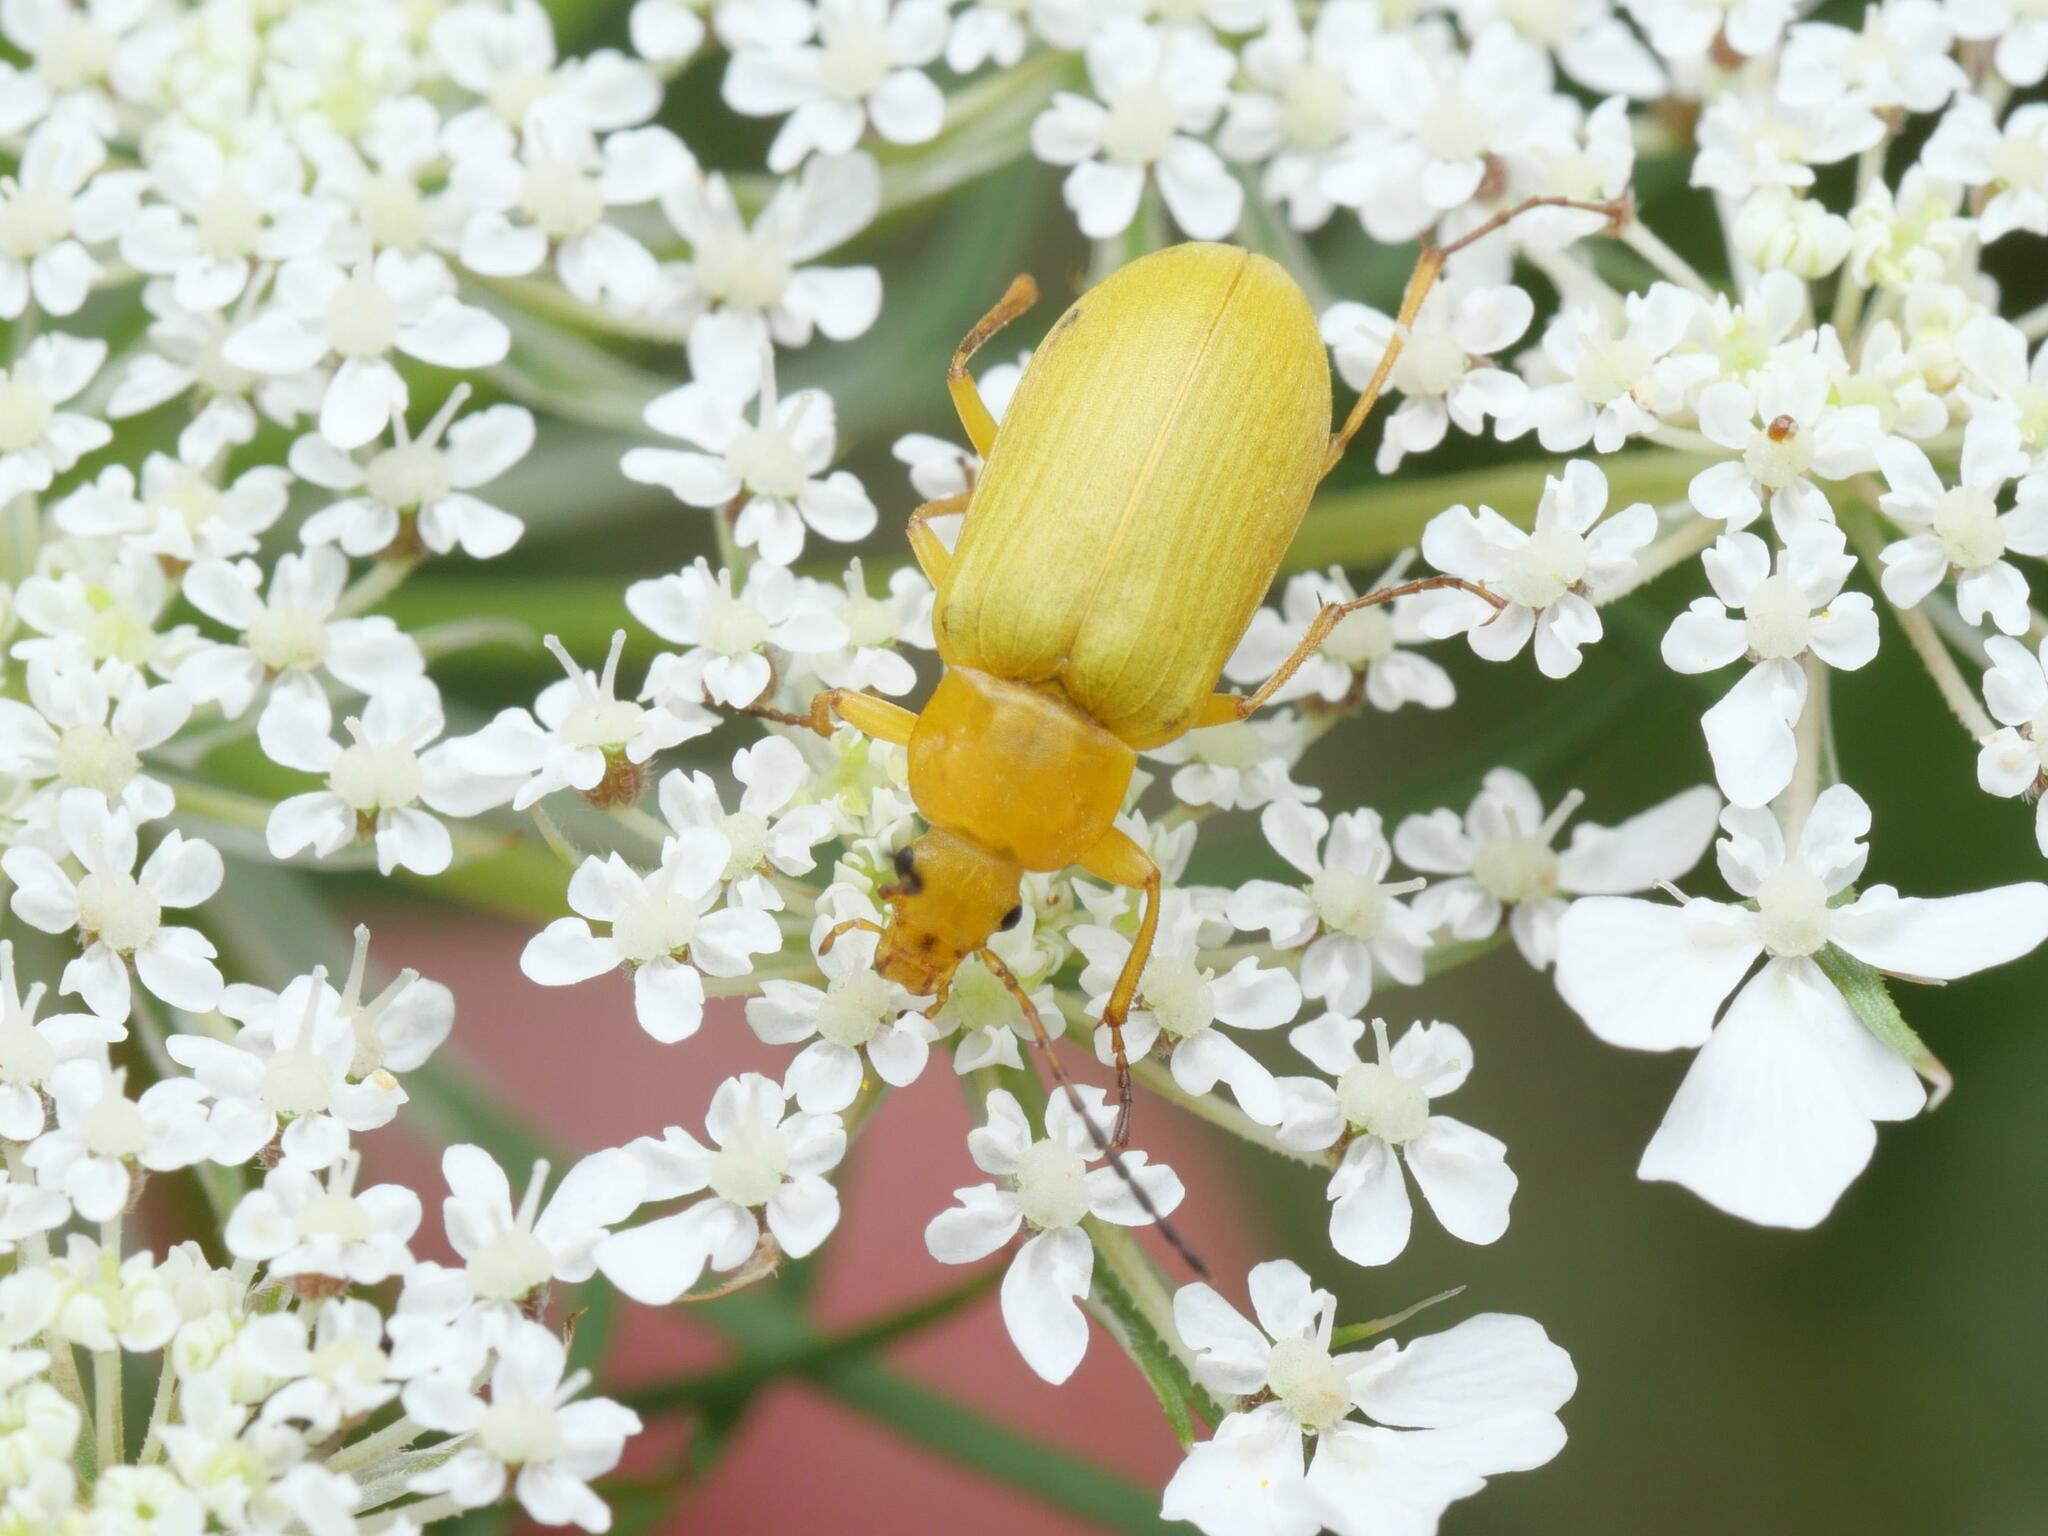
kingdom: Animalia
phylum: Arthropoda
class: Insecta
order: Coleoptera
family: Tenebrionidae
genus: Cteniopus
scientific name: Cteniopus sulphureus
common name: Sulphur beetle
